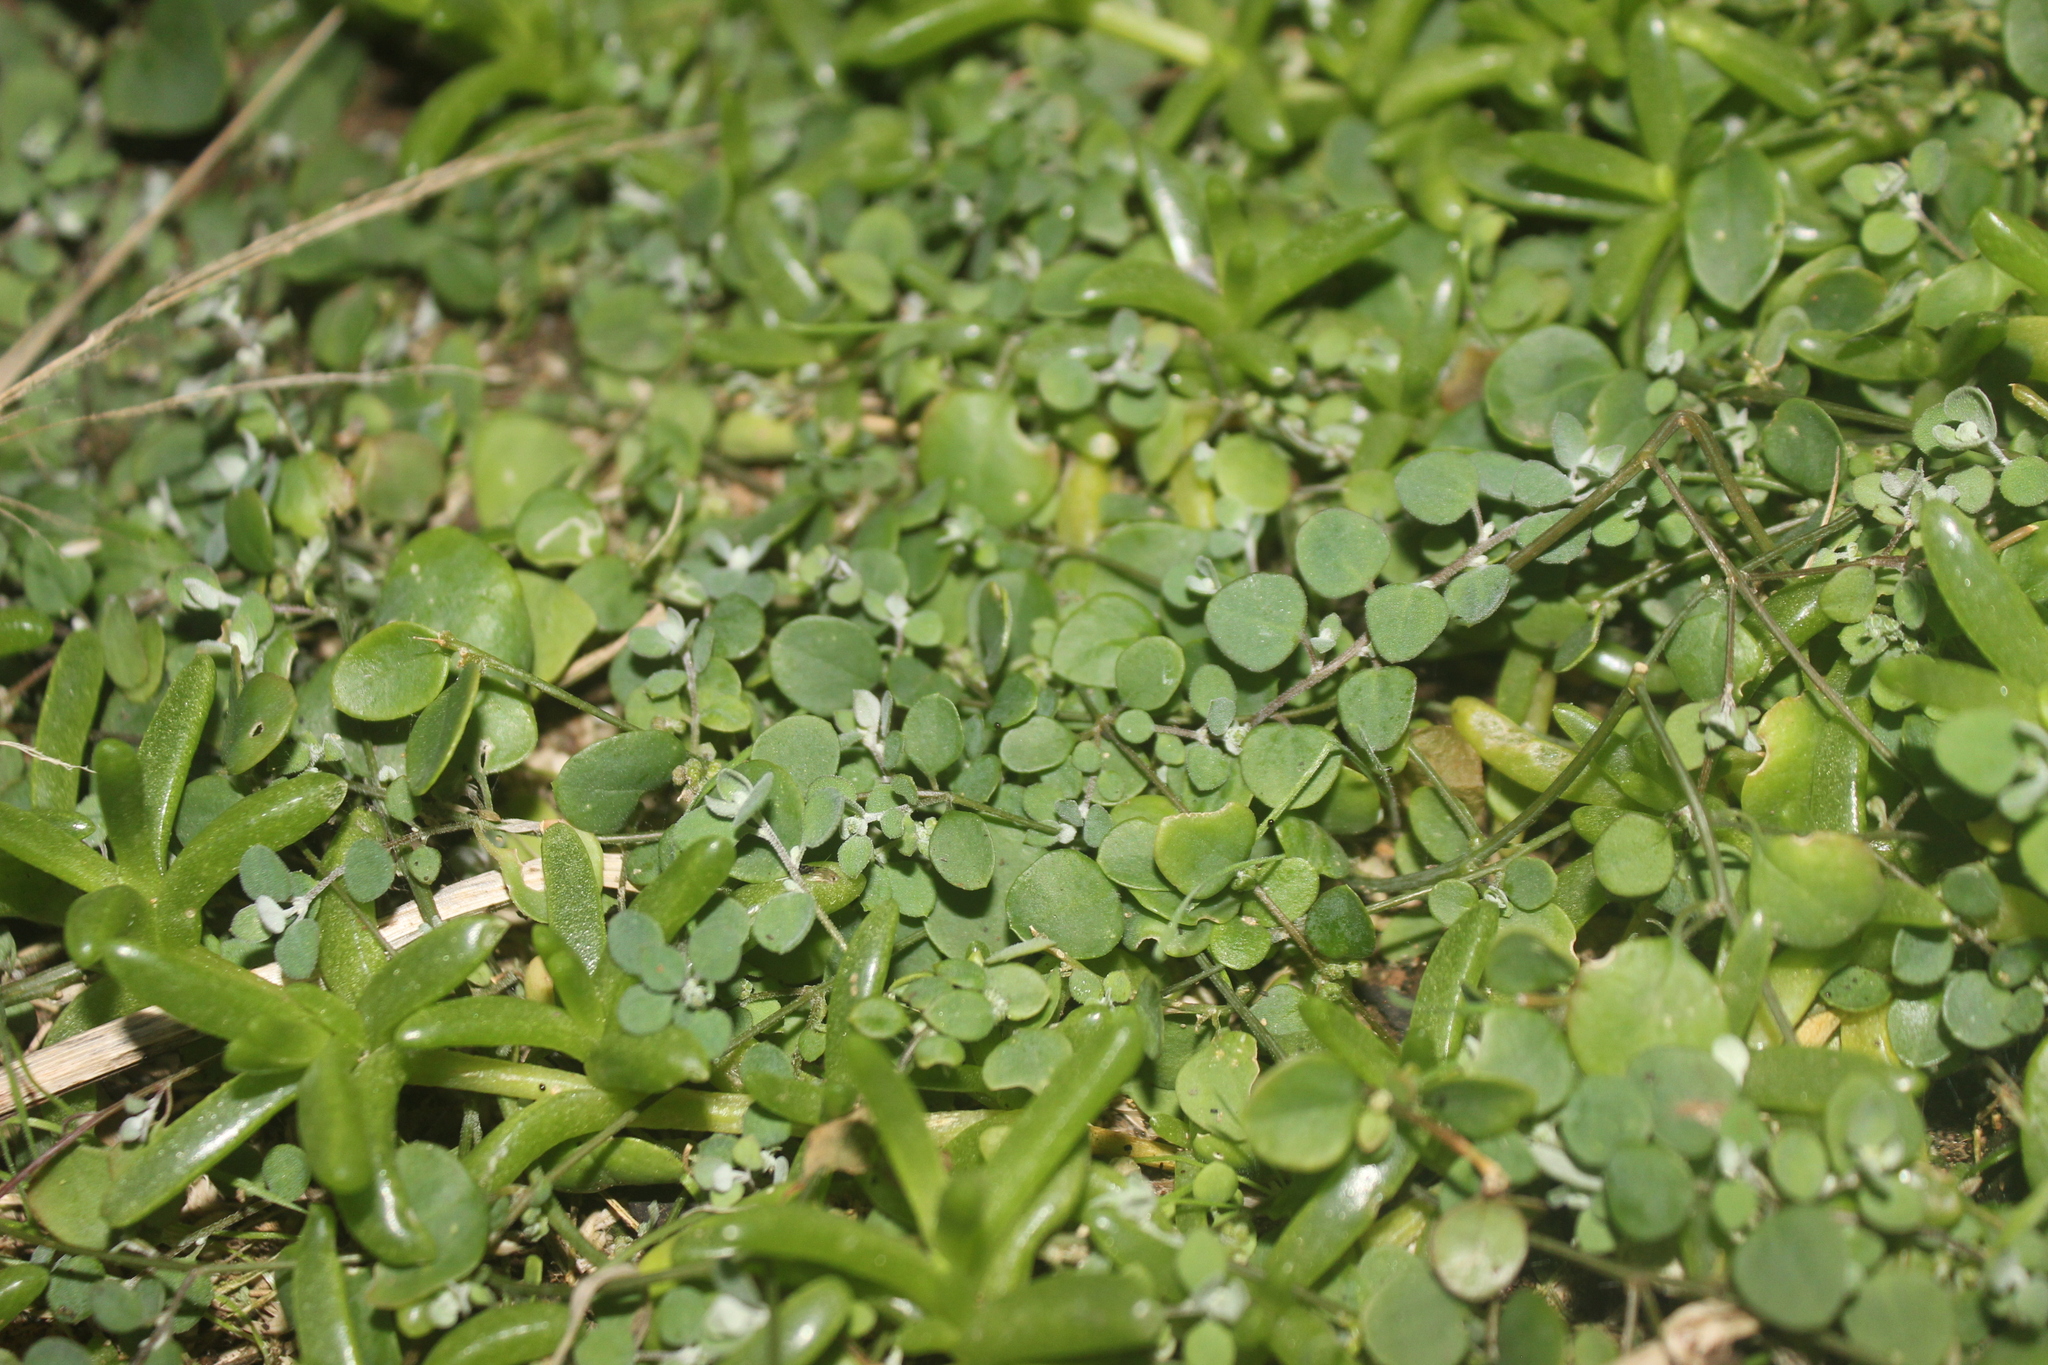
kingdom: Plantae
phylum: Tracheophyta
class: Magnoliopsida
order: Caryophyllales
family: Amaranthaceae
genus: Chenopodium
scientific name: Chenopodium triandrum
